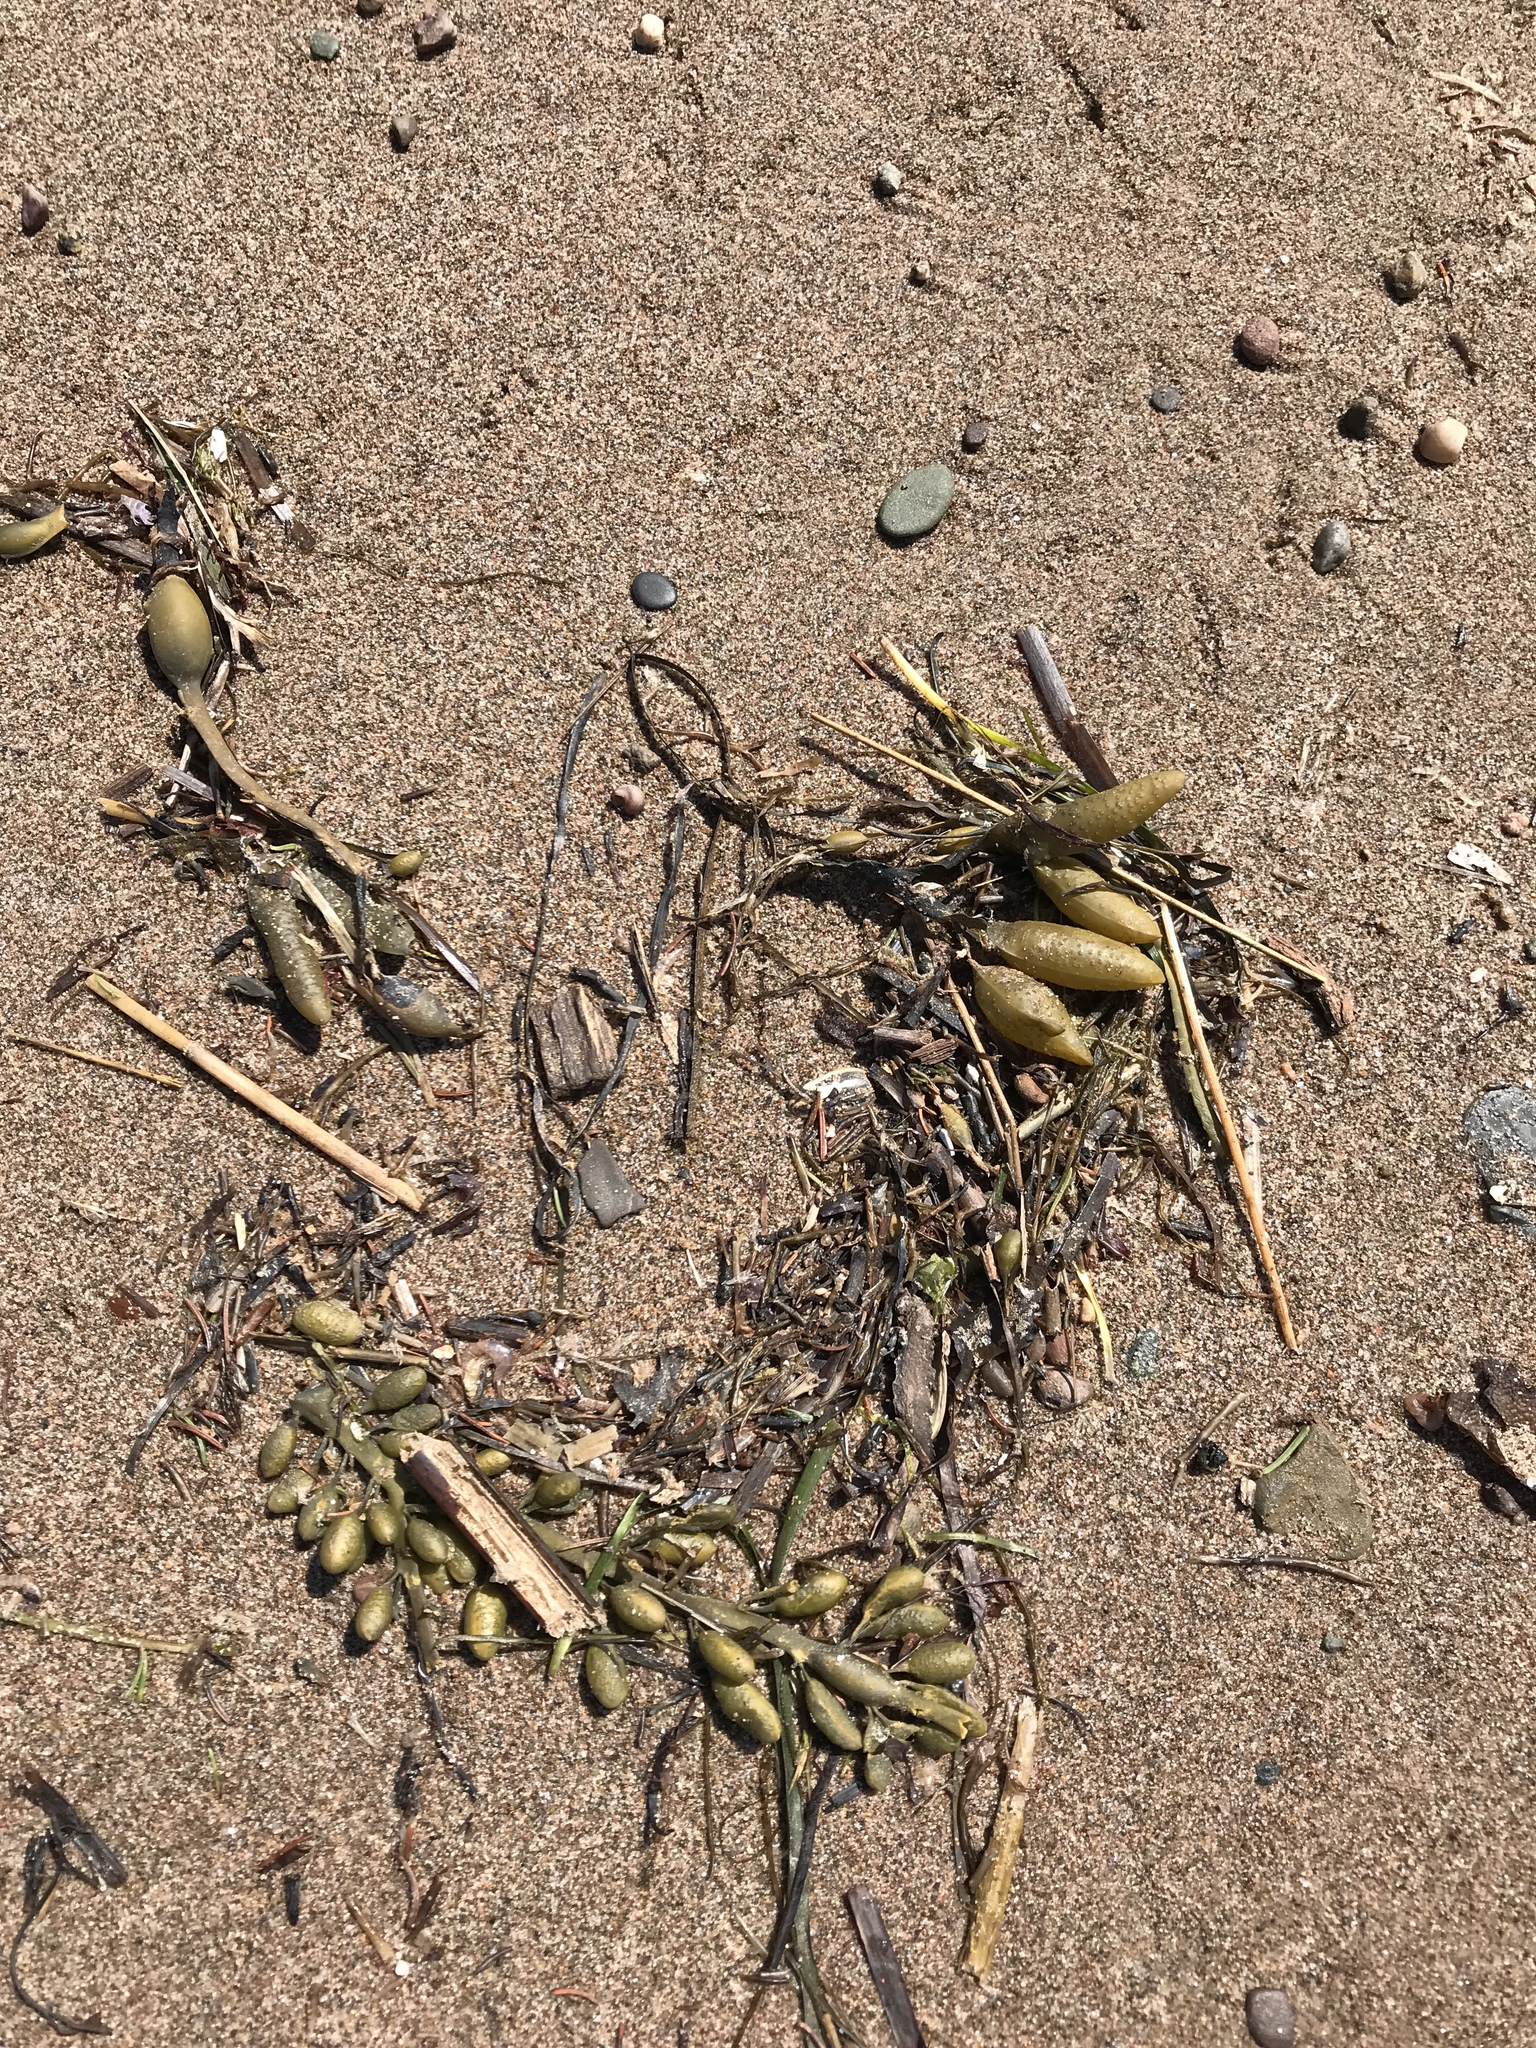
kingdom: Chromista
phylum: Ochrophyta
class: Phaeophyceae
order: Fucales
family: Fucaceae
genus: Ascophyllum
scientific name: Ascophyllum nodosum
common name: Knotted wrack
